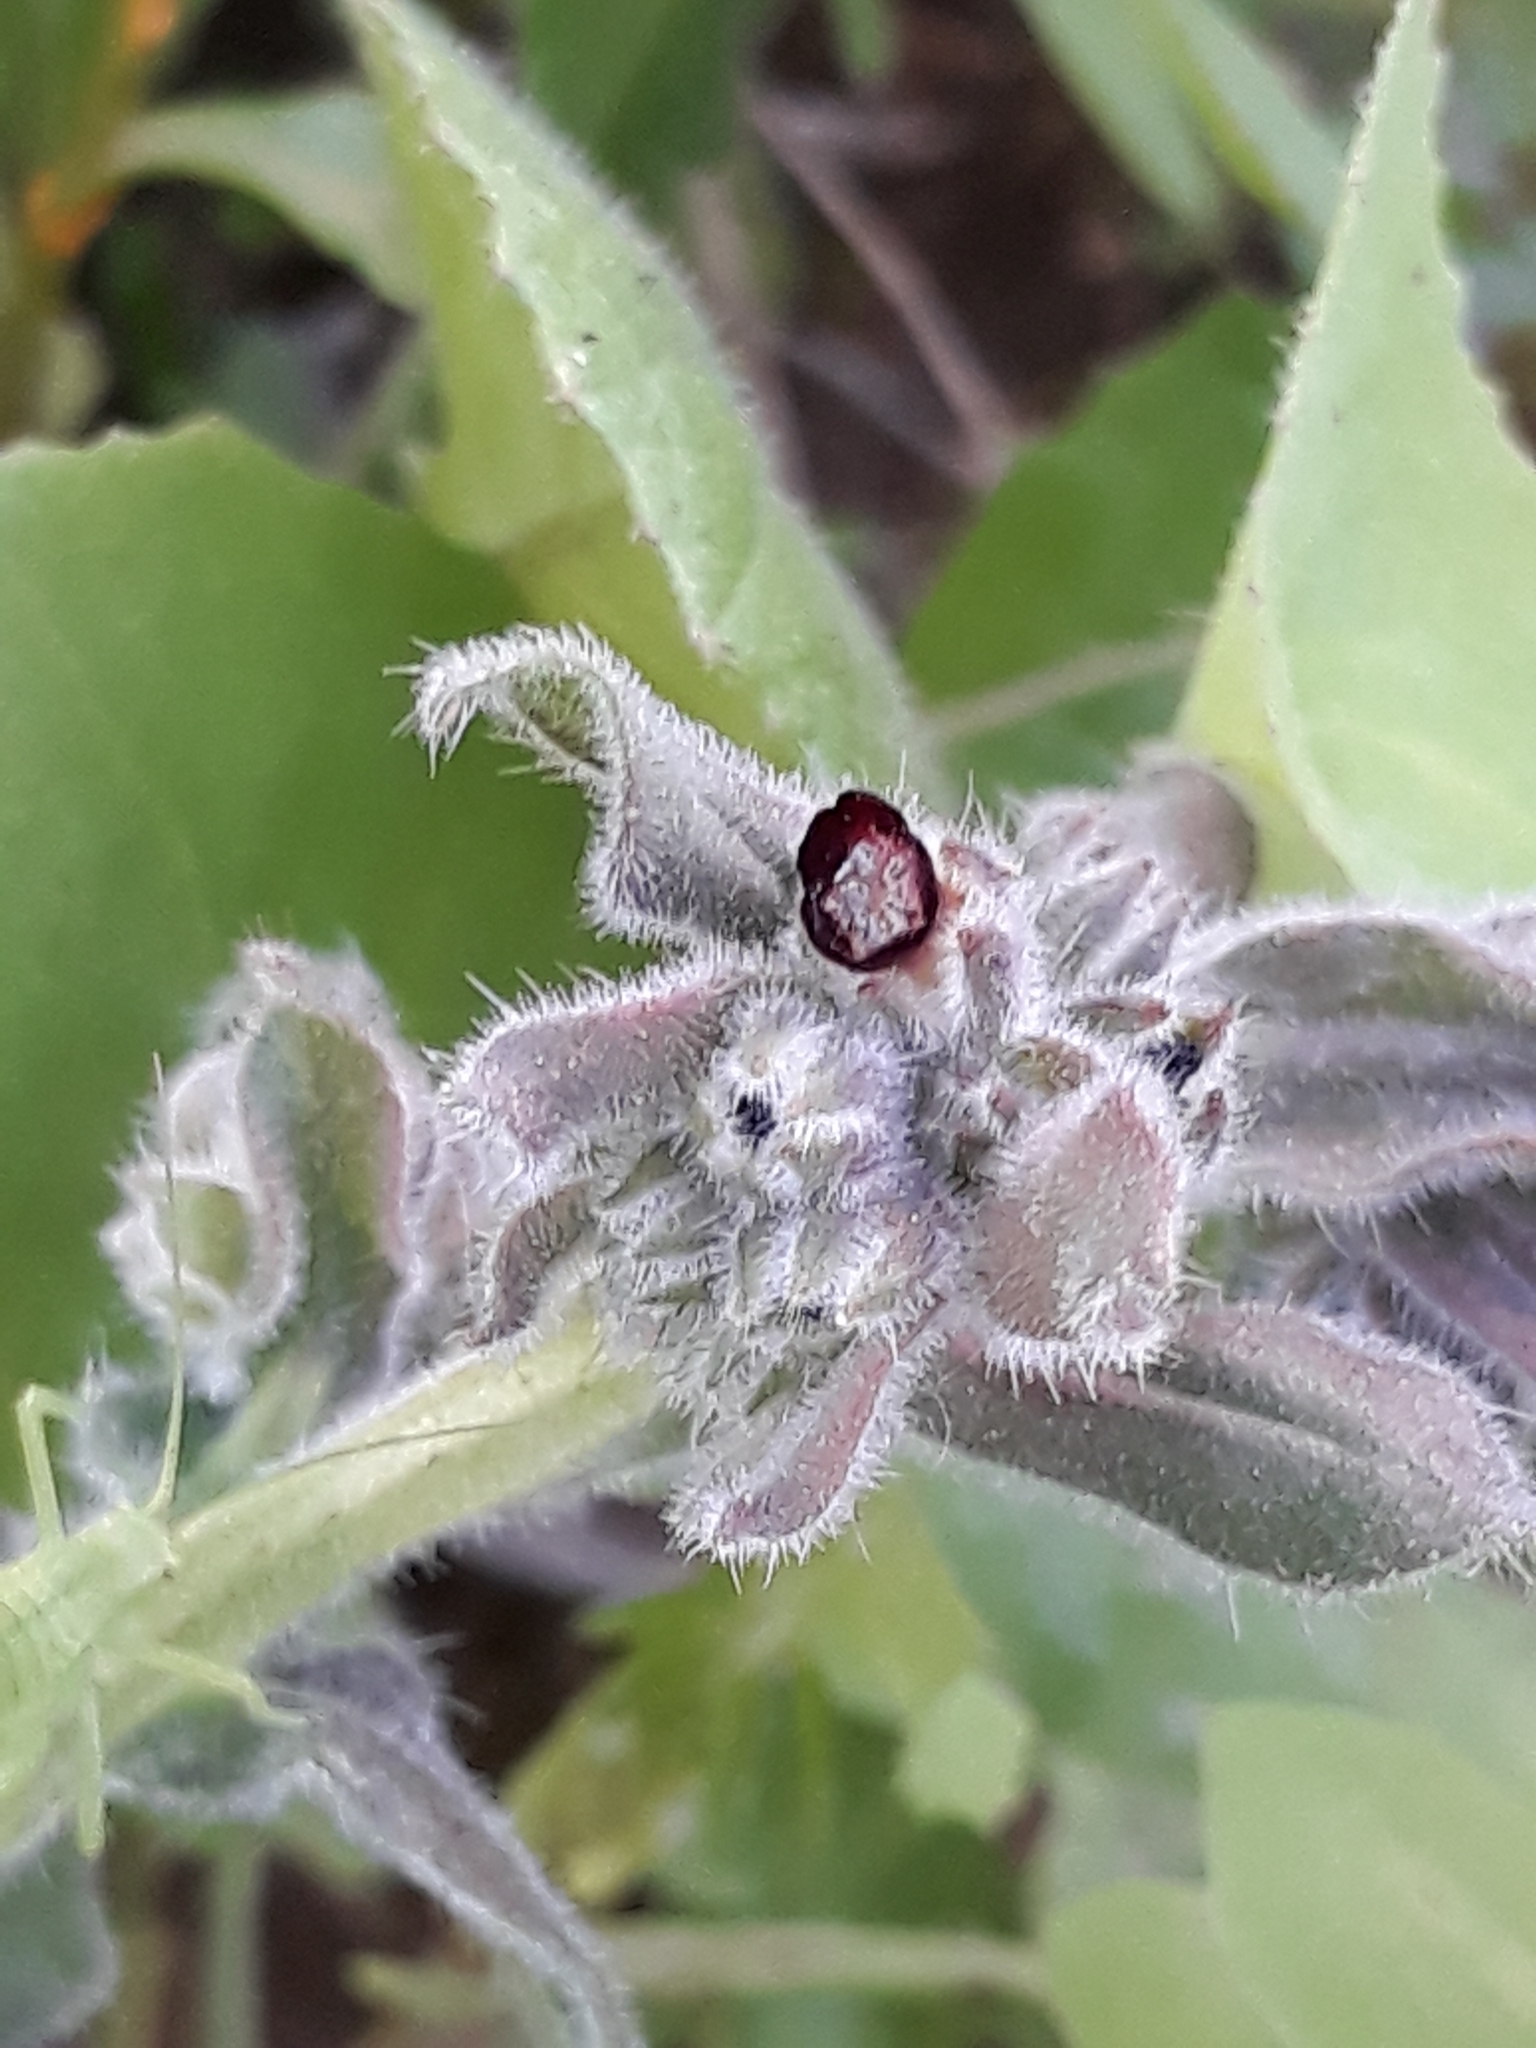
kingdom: Plantae
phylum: Tracheophyta
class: Magnoliopsida
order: Boraginales
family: Boraginaceae
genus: Nonea
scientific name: Nonea vesicaria
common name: Red monkswort
